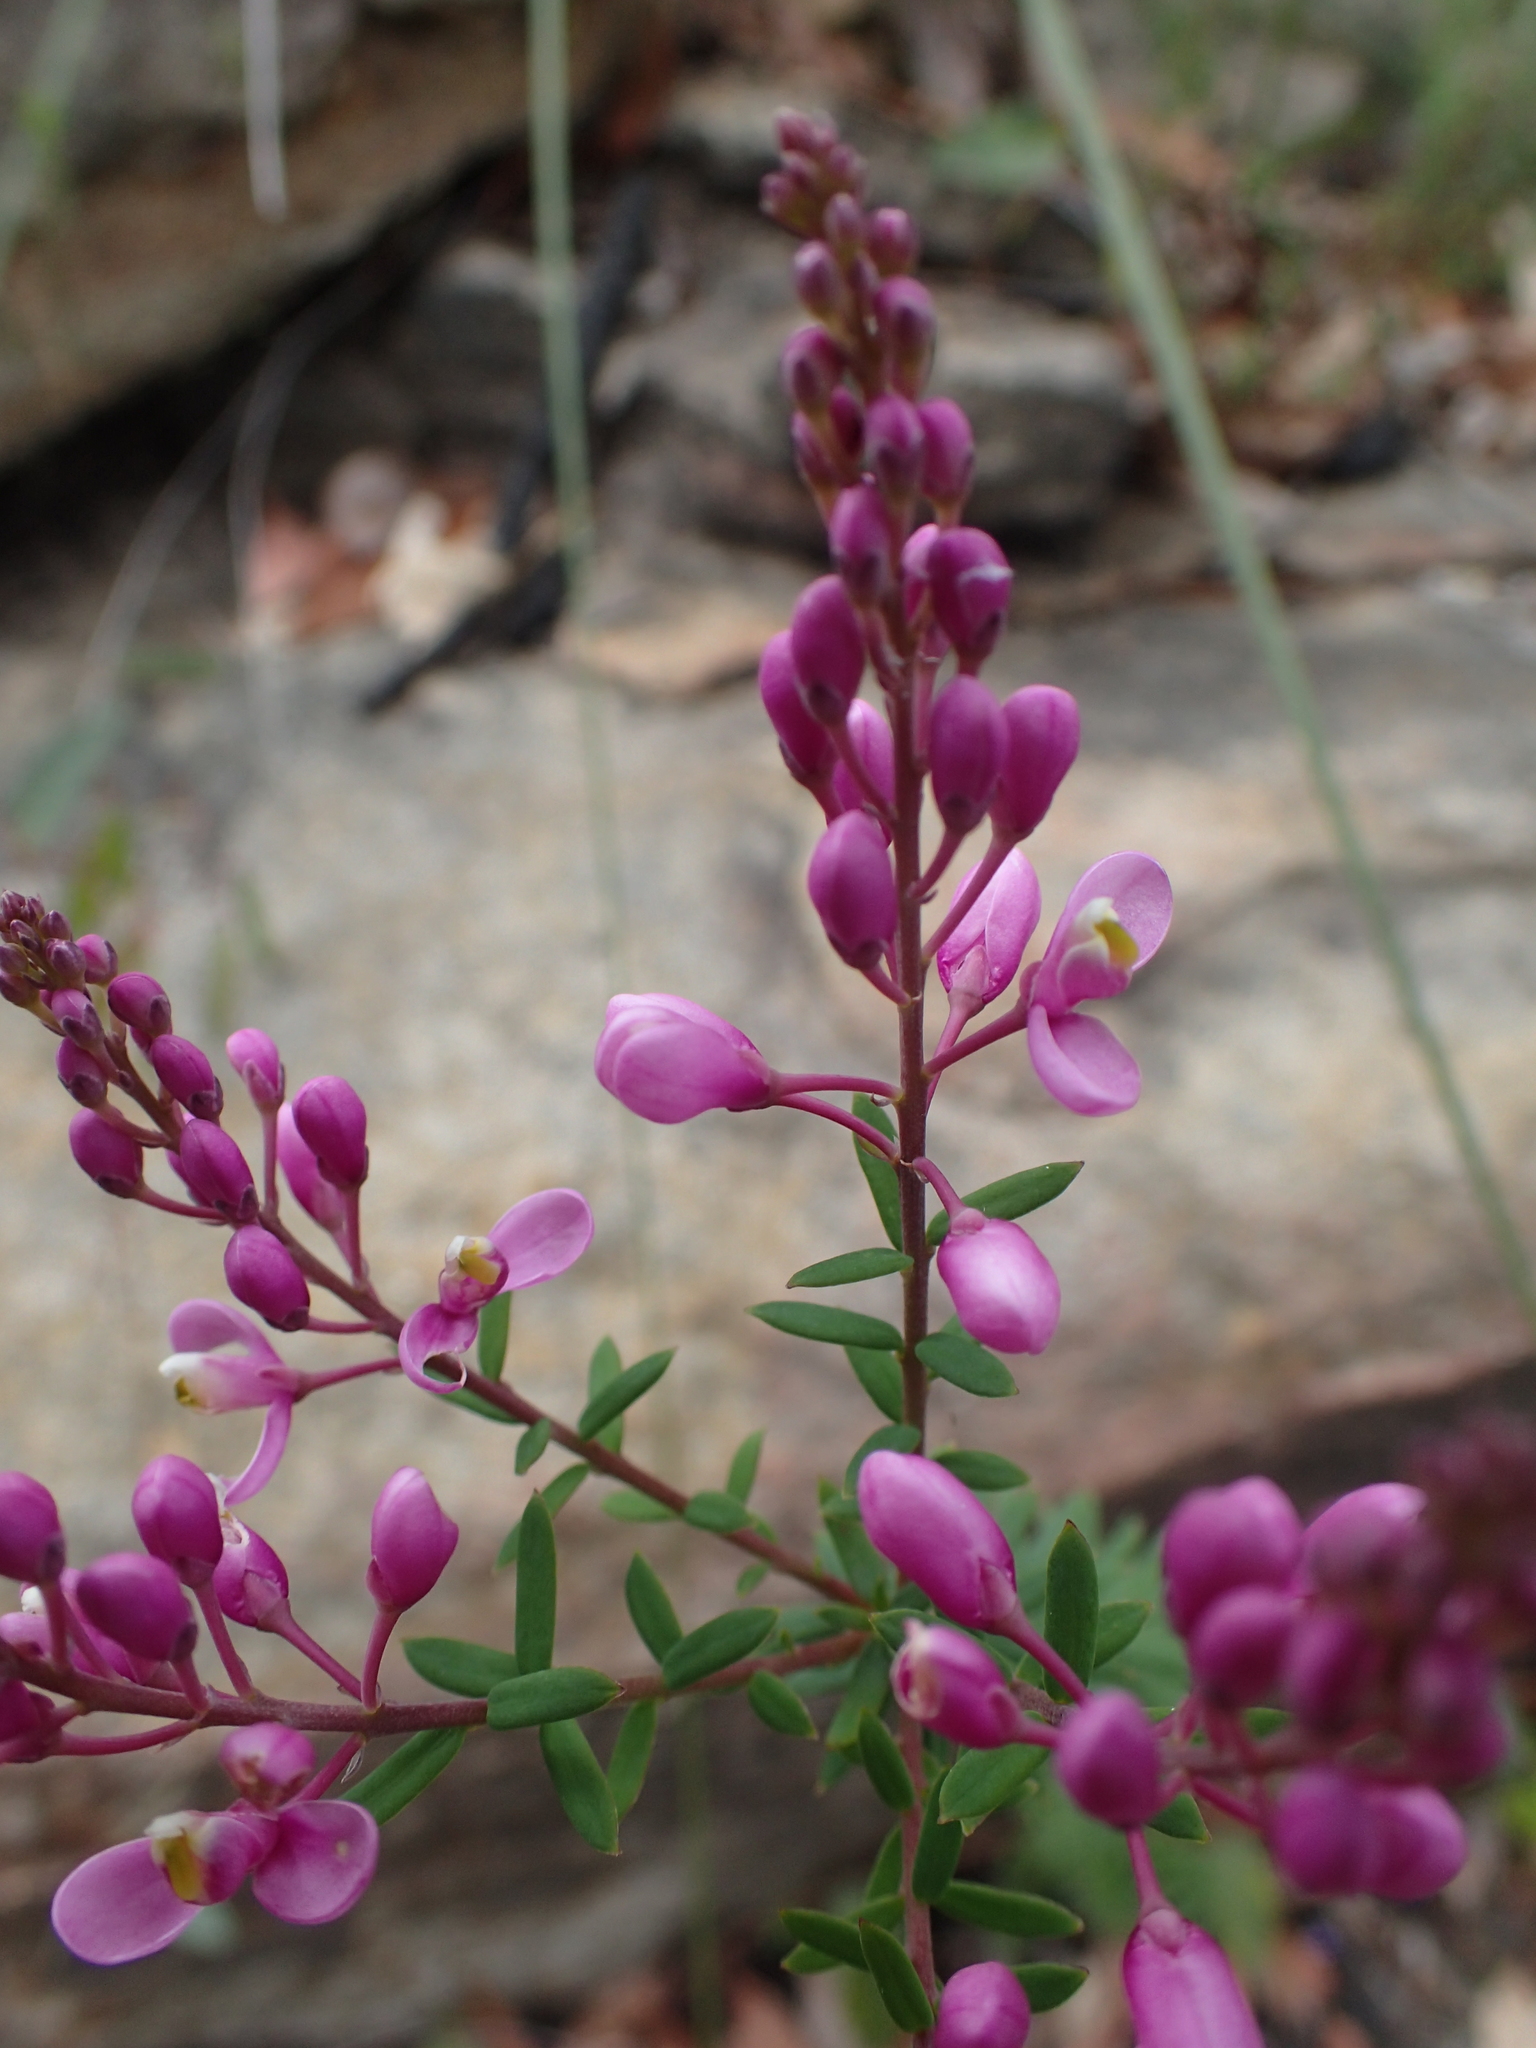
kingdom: Plantae
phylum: Tracheophyta
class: Magnoliopsida
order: Fabales
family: Polygalaceae
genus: Comesperma
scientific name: Comesperma ericinum
